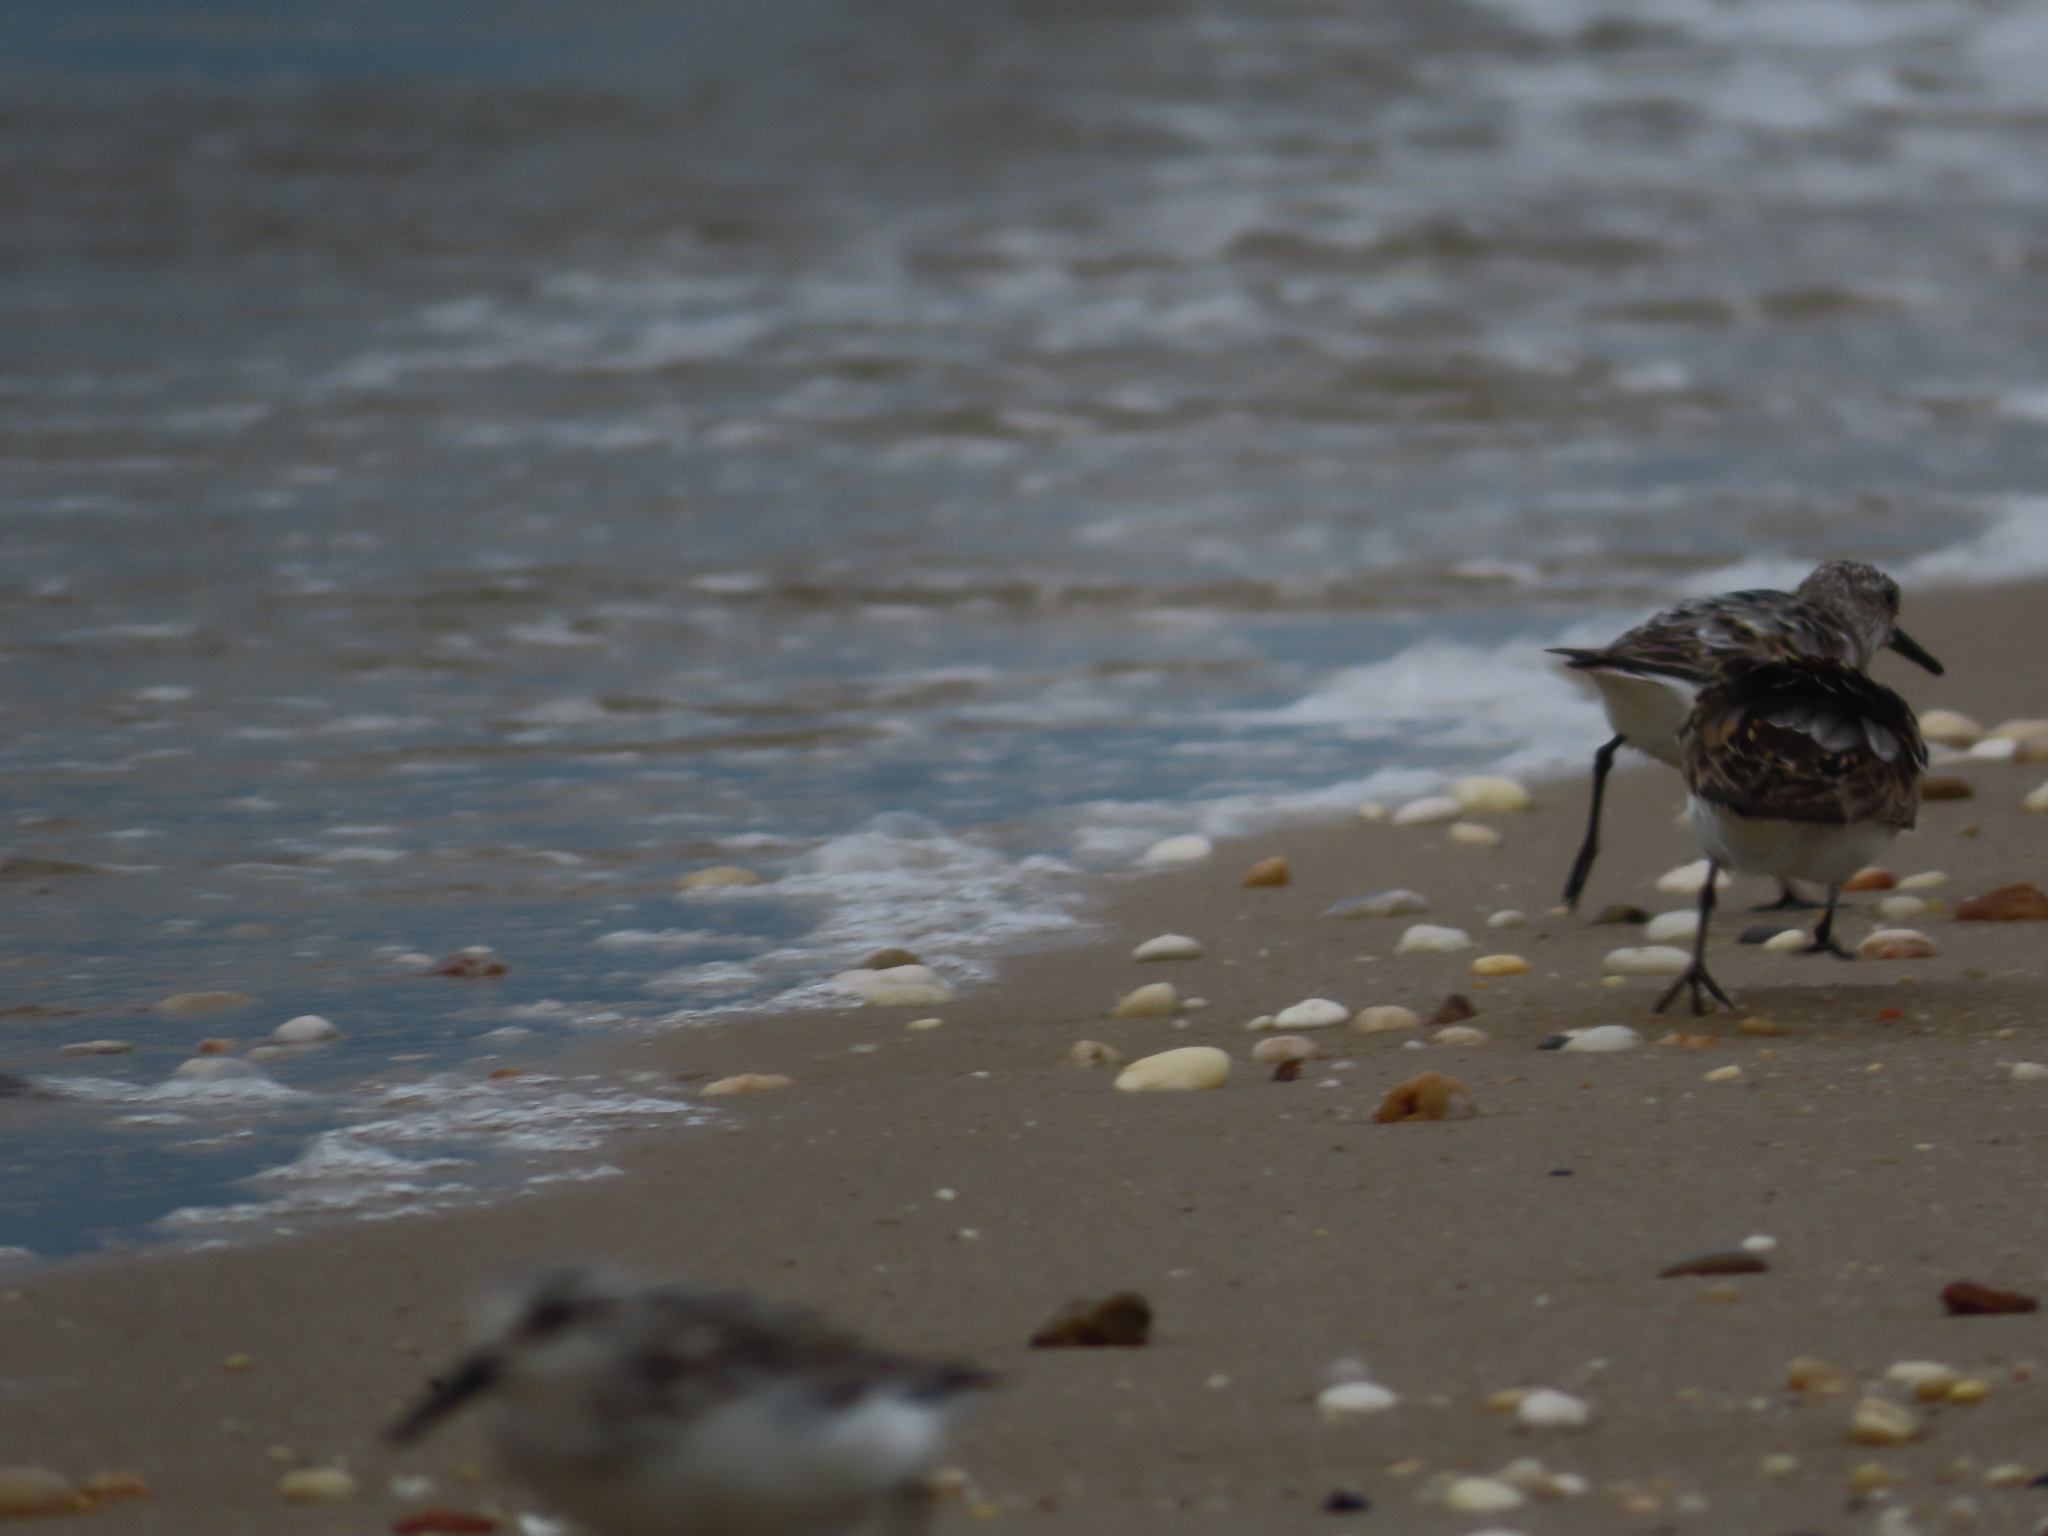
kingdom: Animalia
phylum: Chordata
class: Aves
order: Charadriiformes
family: Scolopacidae
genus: Calidris
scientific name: Calidris alba
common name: Sanderling
